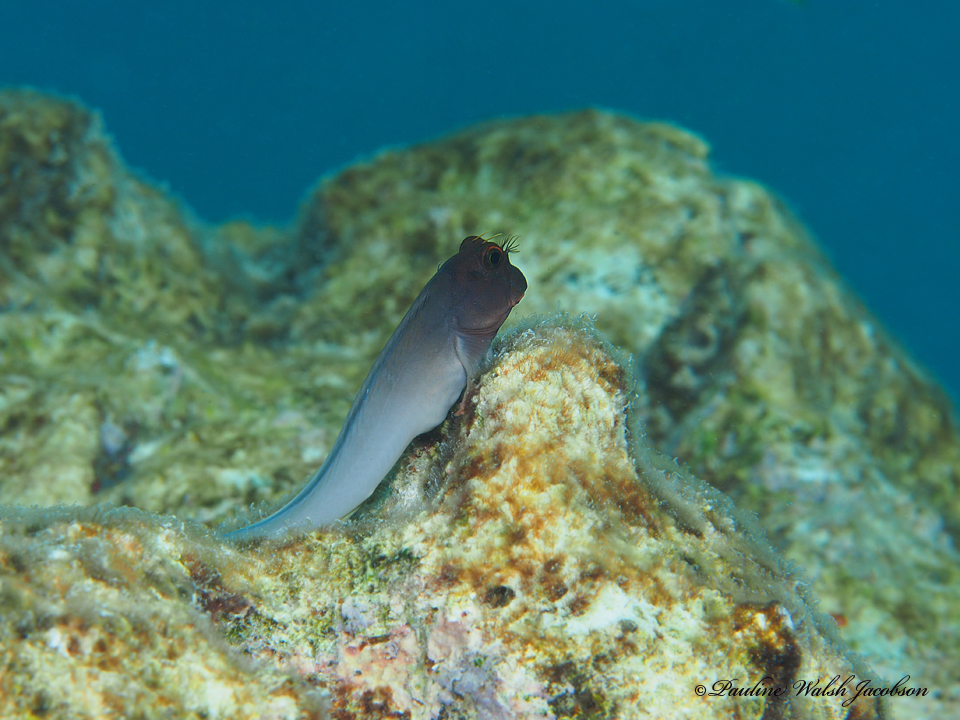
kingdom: Animalia
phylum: Chordata
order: Perciformes
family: Blenniidae
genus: Ophioblennius
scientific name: Ophioblennius macclurei
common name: Redlip blenny
